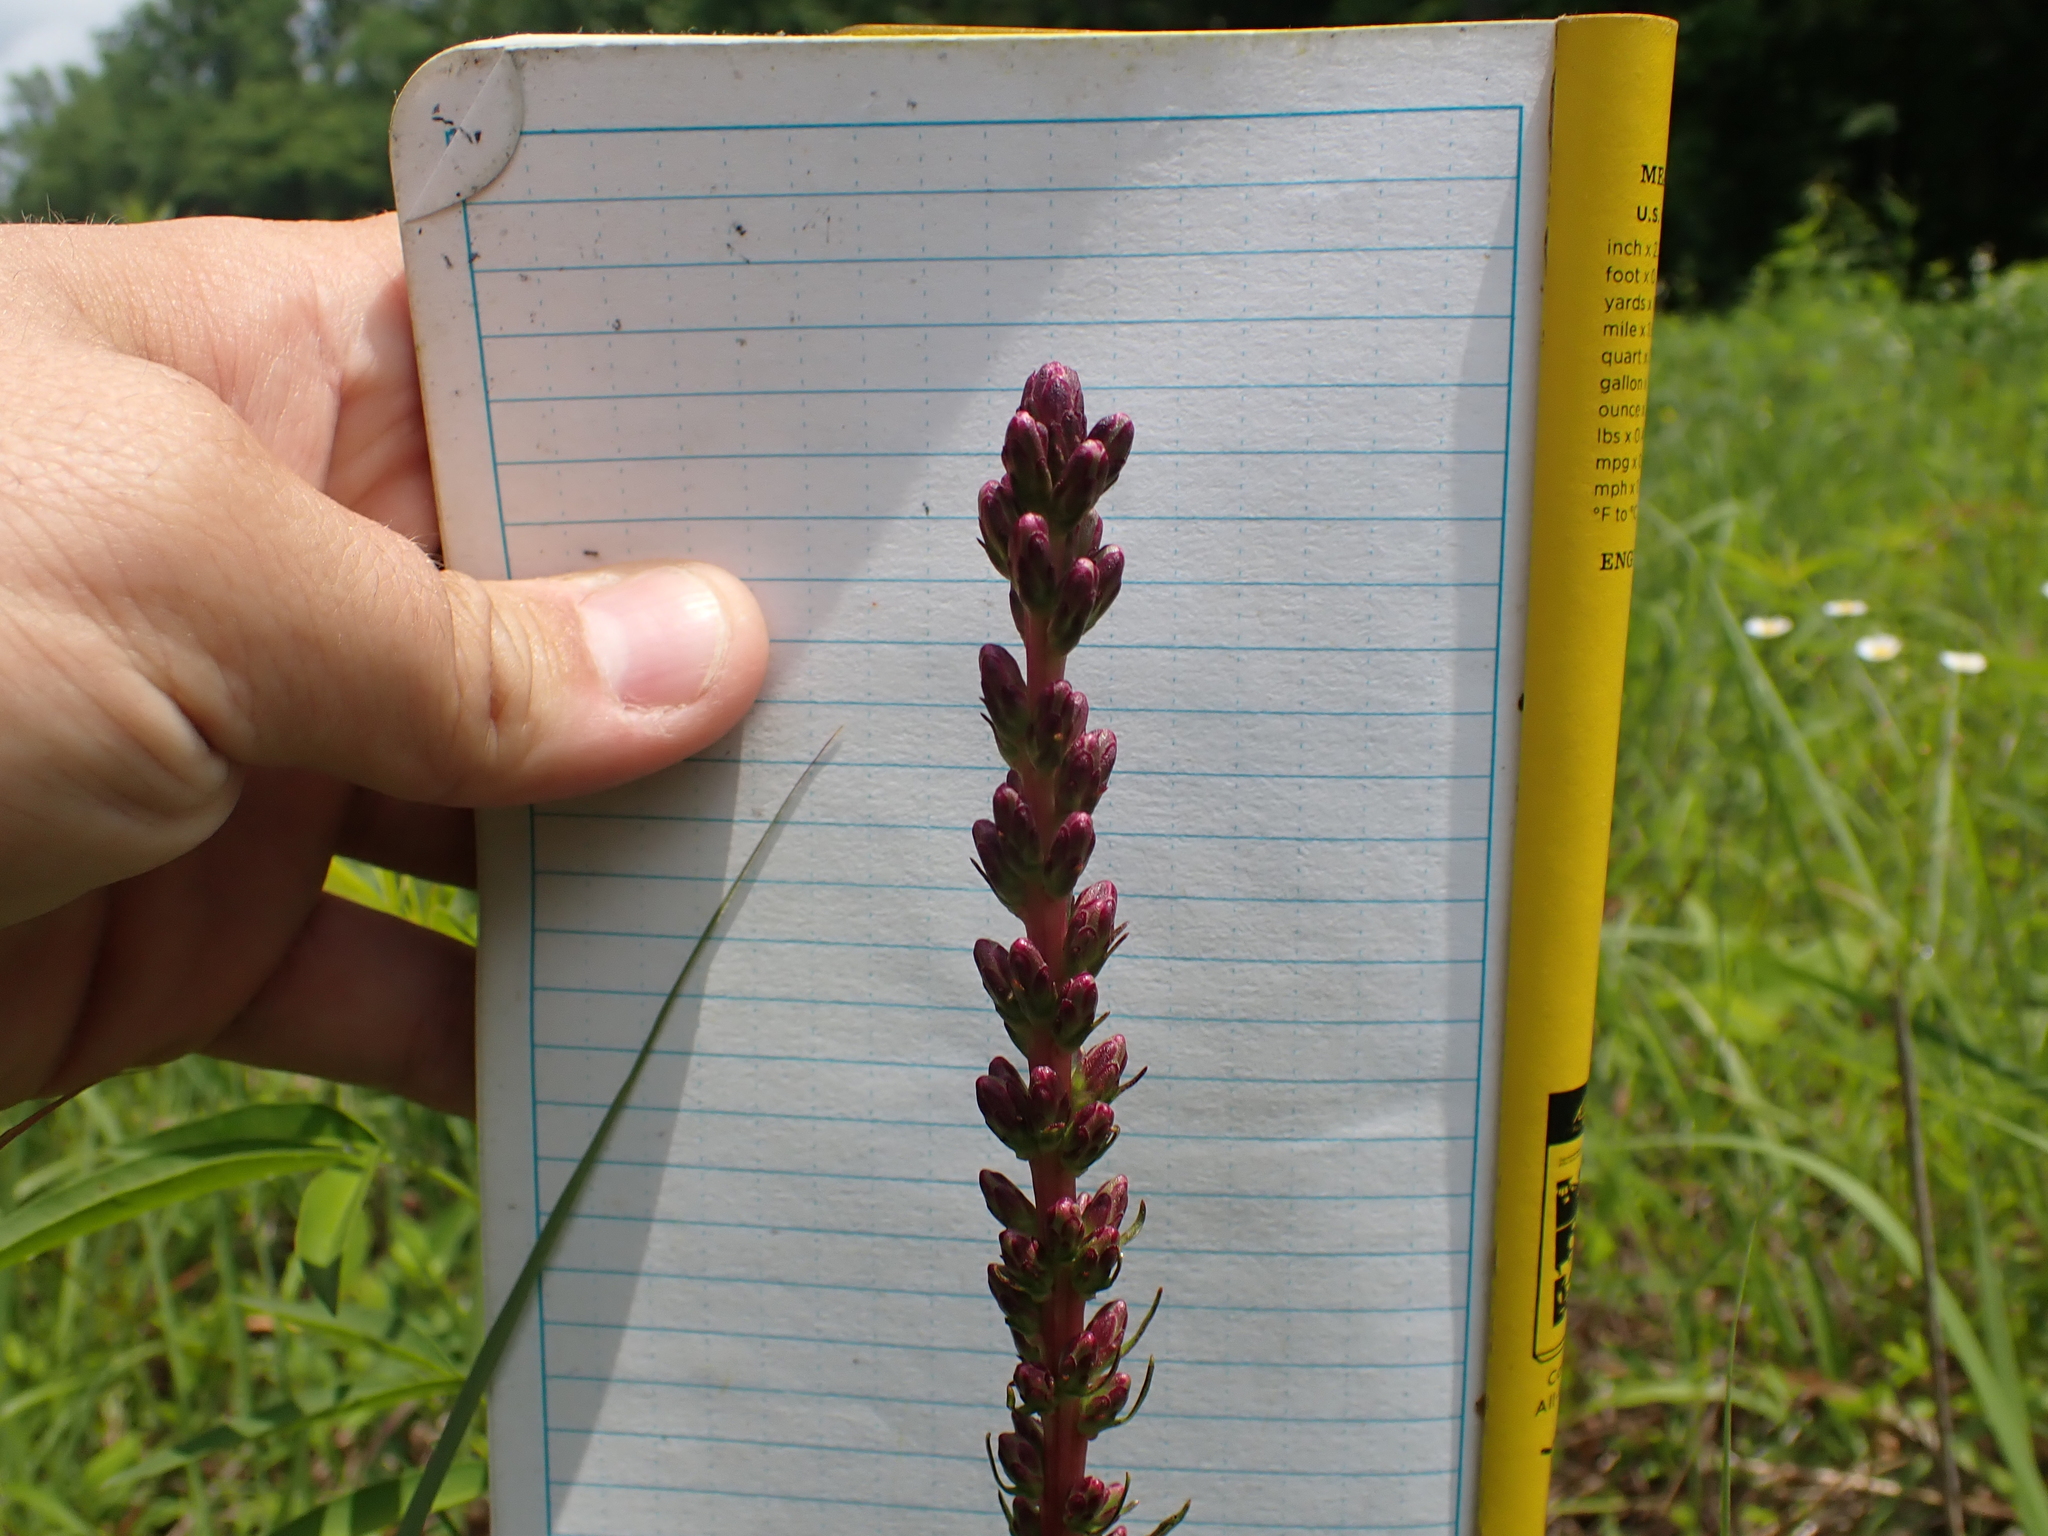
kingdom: Plantae
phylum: Tracheophyta
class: Magnoliopsida
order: Asterales
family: Asteraceae
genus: Liatris
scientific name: Liatris spicata
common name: Florist gayfeather
